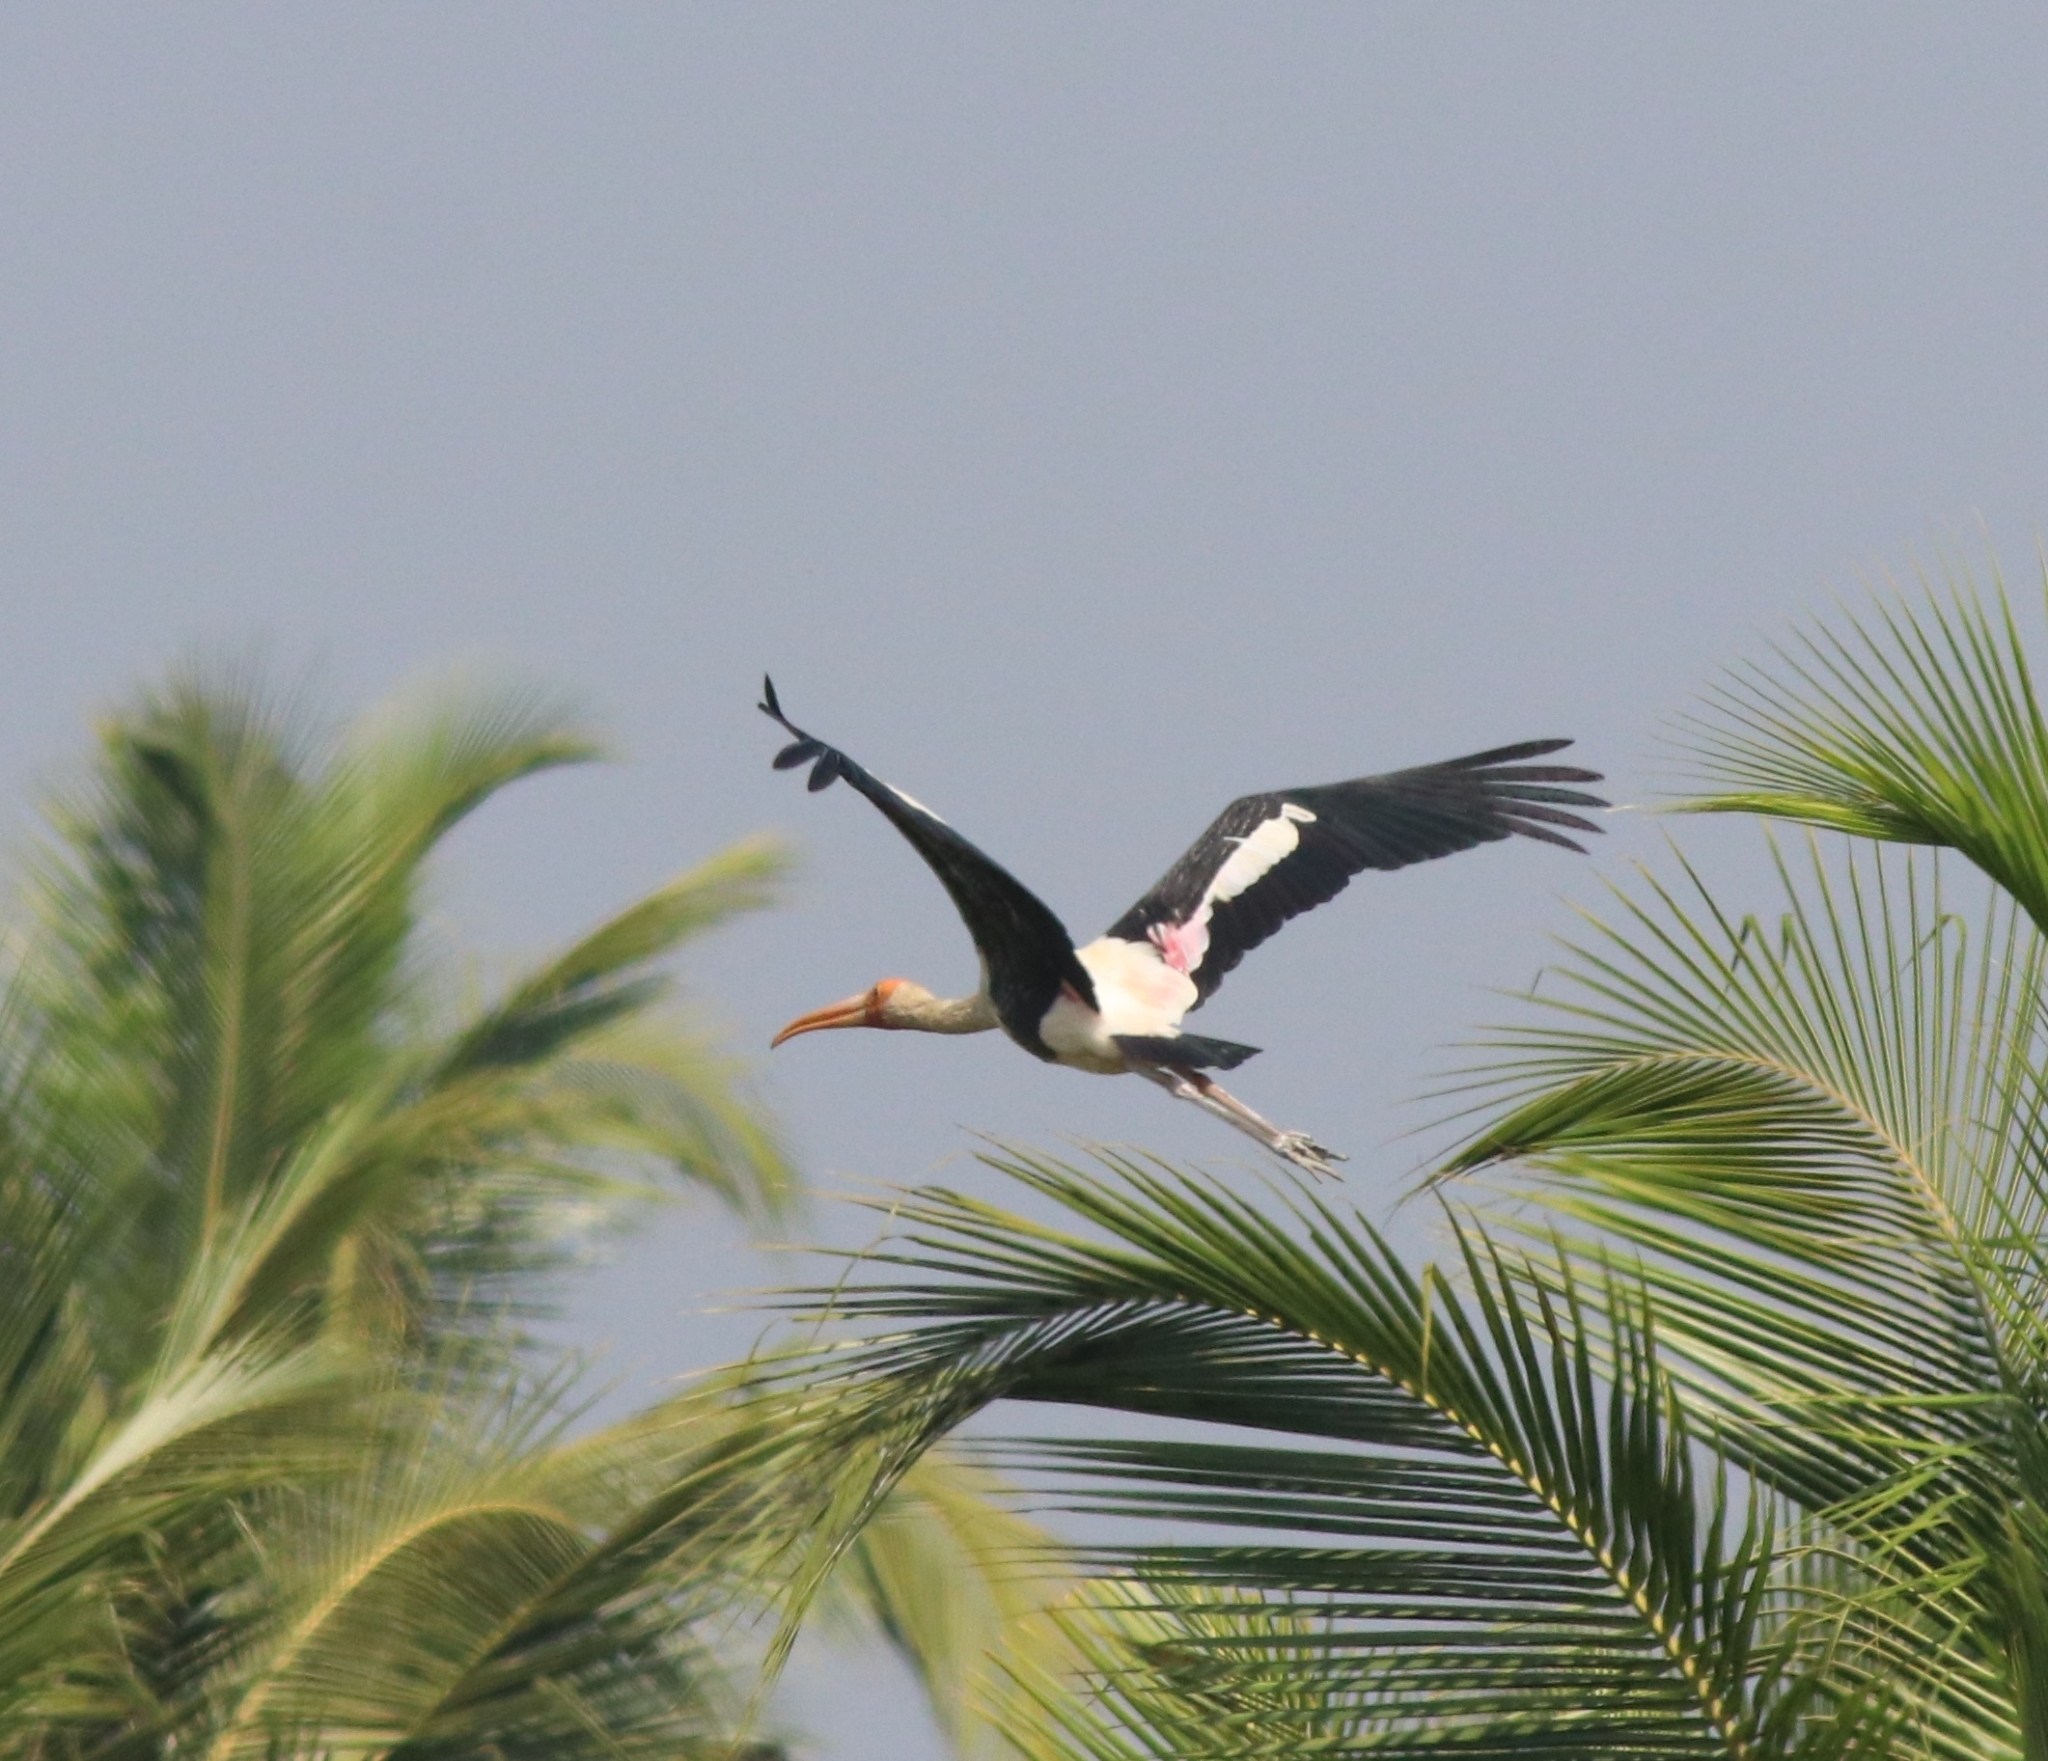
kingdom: Animalia
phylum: Chordata
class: Aves
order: Ciconiiformes
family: Ciconiidae
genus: Mycteria
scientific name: Mycteria leucocephala
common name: Painted stork
